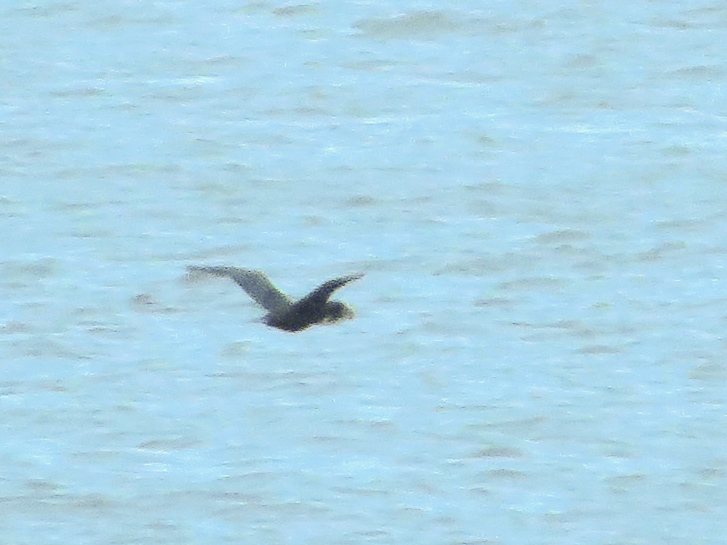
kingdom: Animalia
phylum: Chordata
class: Aves
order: Suliformes
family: Phalacrocoracidae
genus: Phalacrocorax
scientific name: Phalacrocorax auritus
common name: Double-crested cormorant
